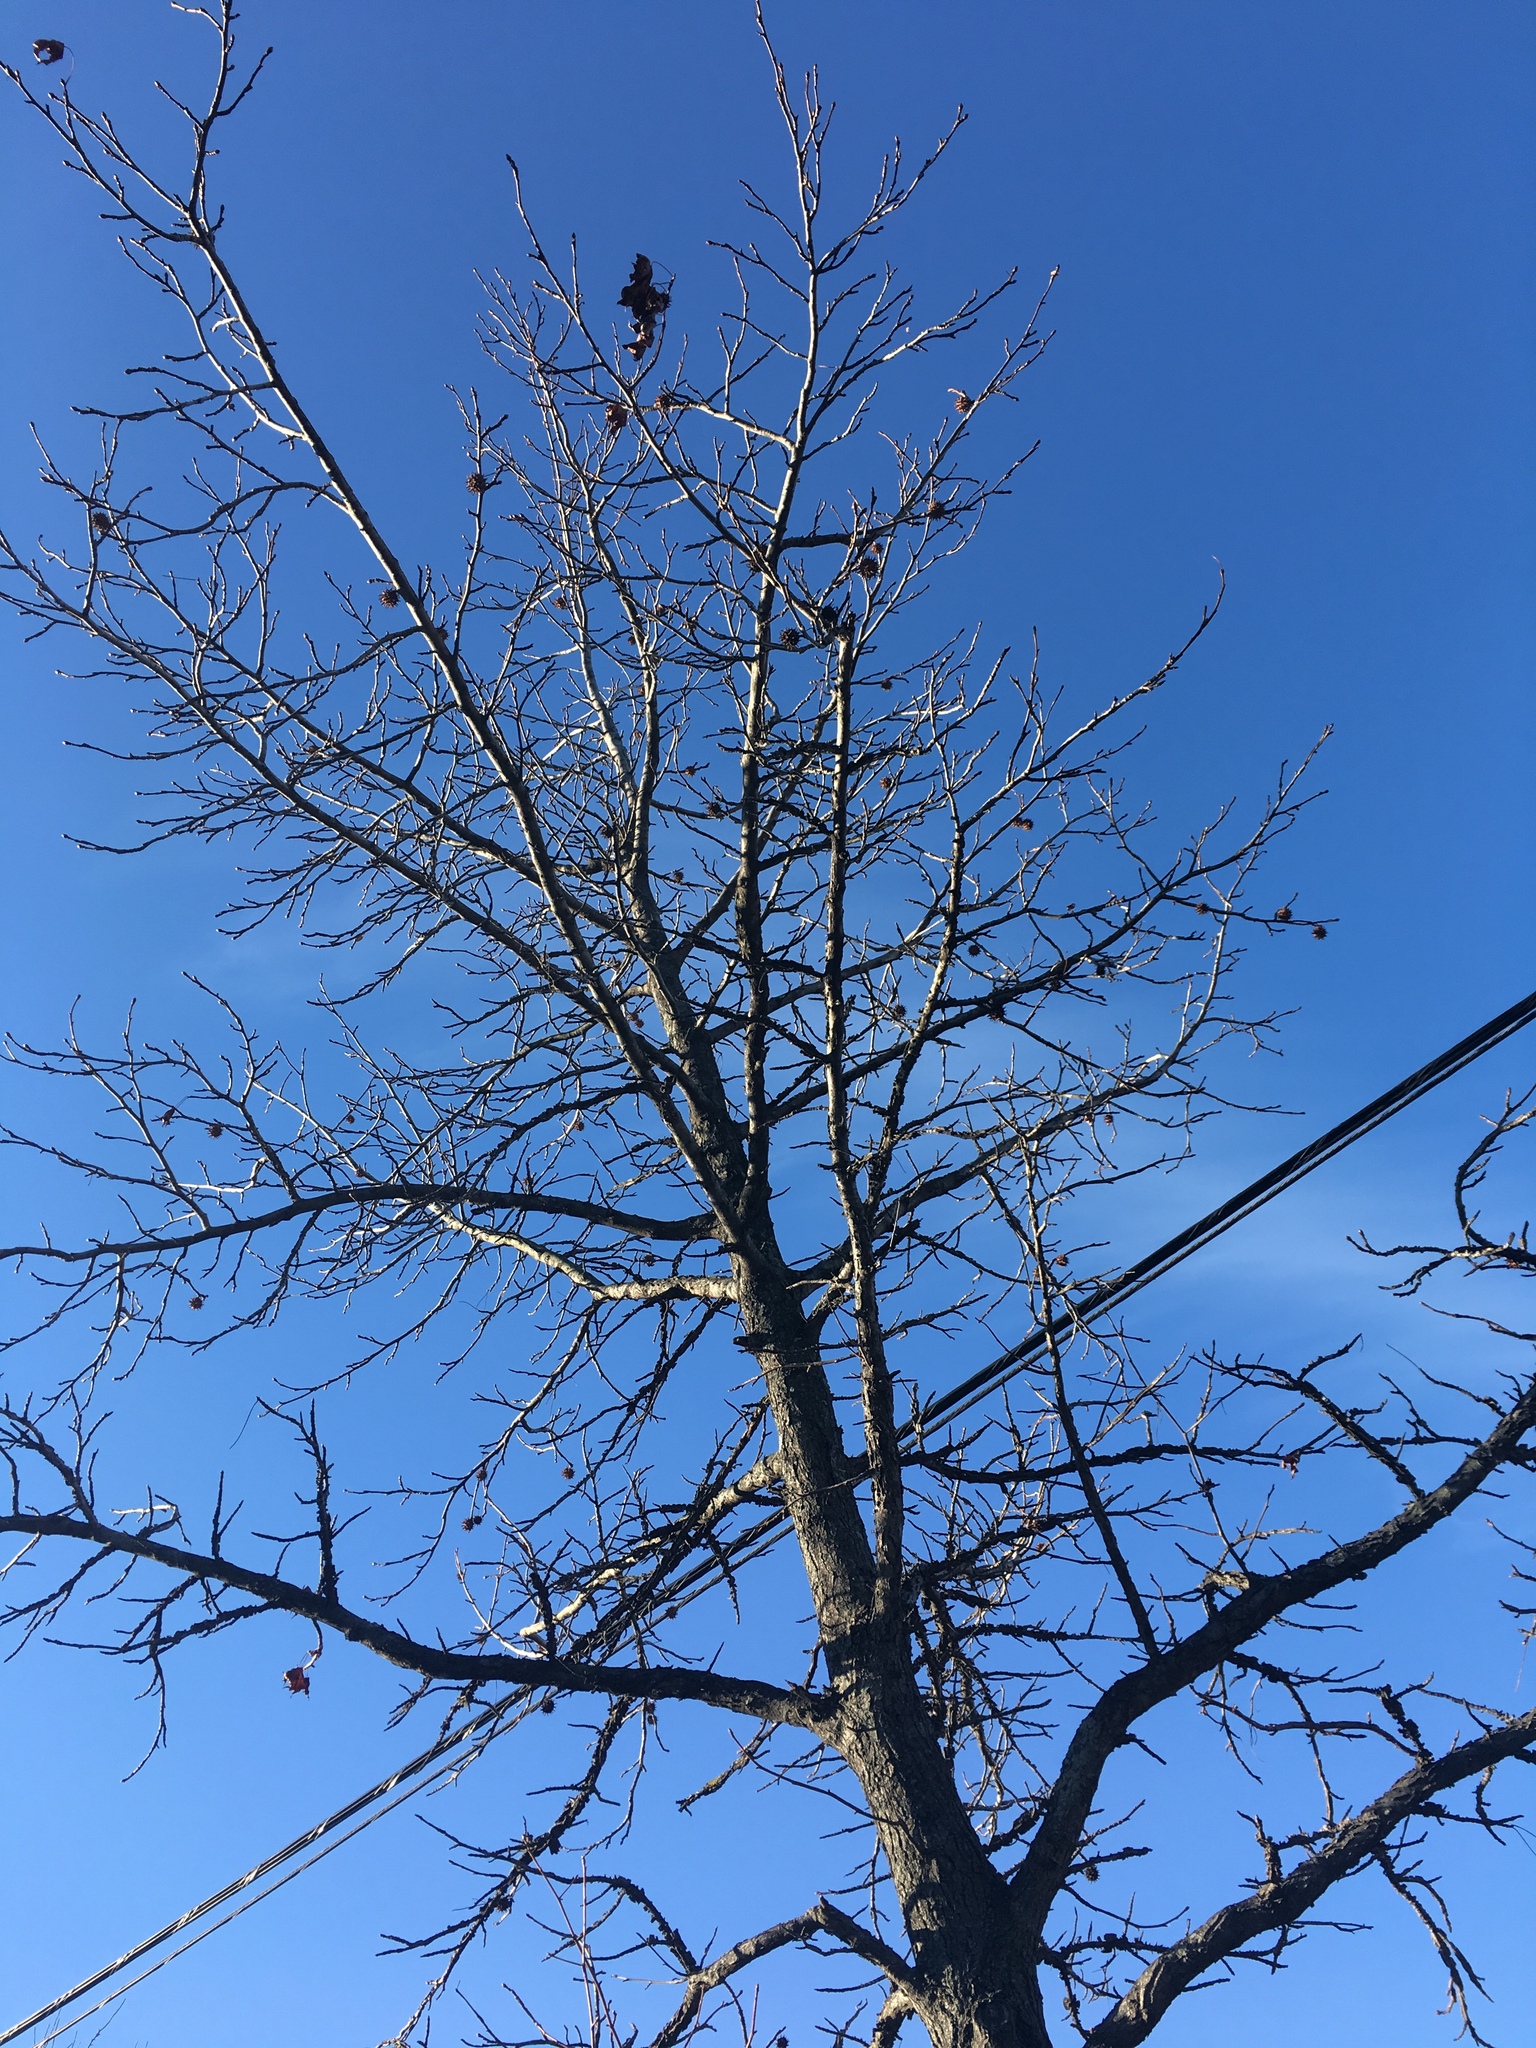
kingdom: Plantae
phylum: Tracheophyta
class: Magnoliopsida
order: Saxifragales
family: Altingiaceae
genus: Liquidambar
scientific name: Liquidambar styraciflua
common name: Sweet gum
